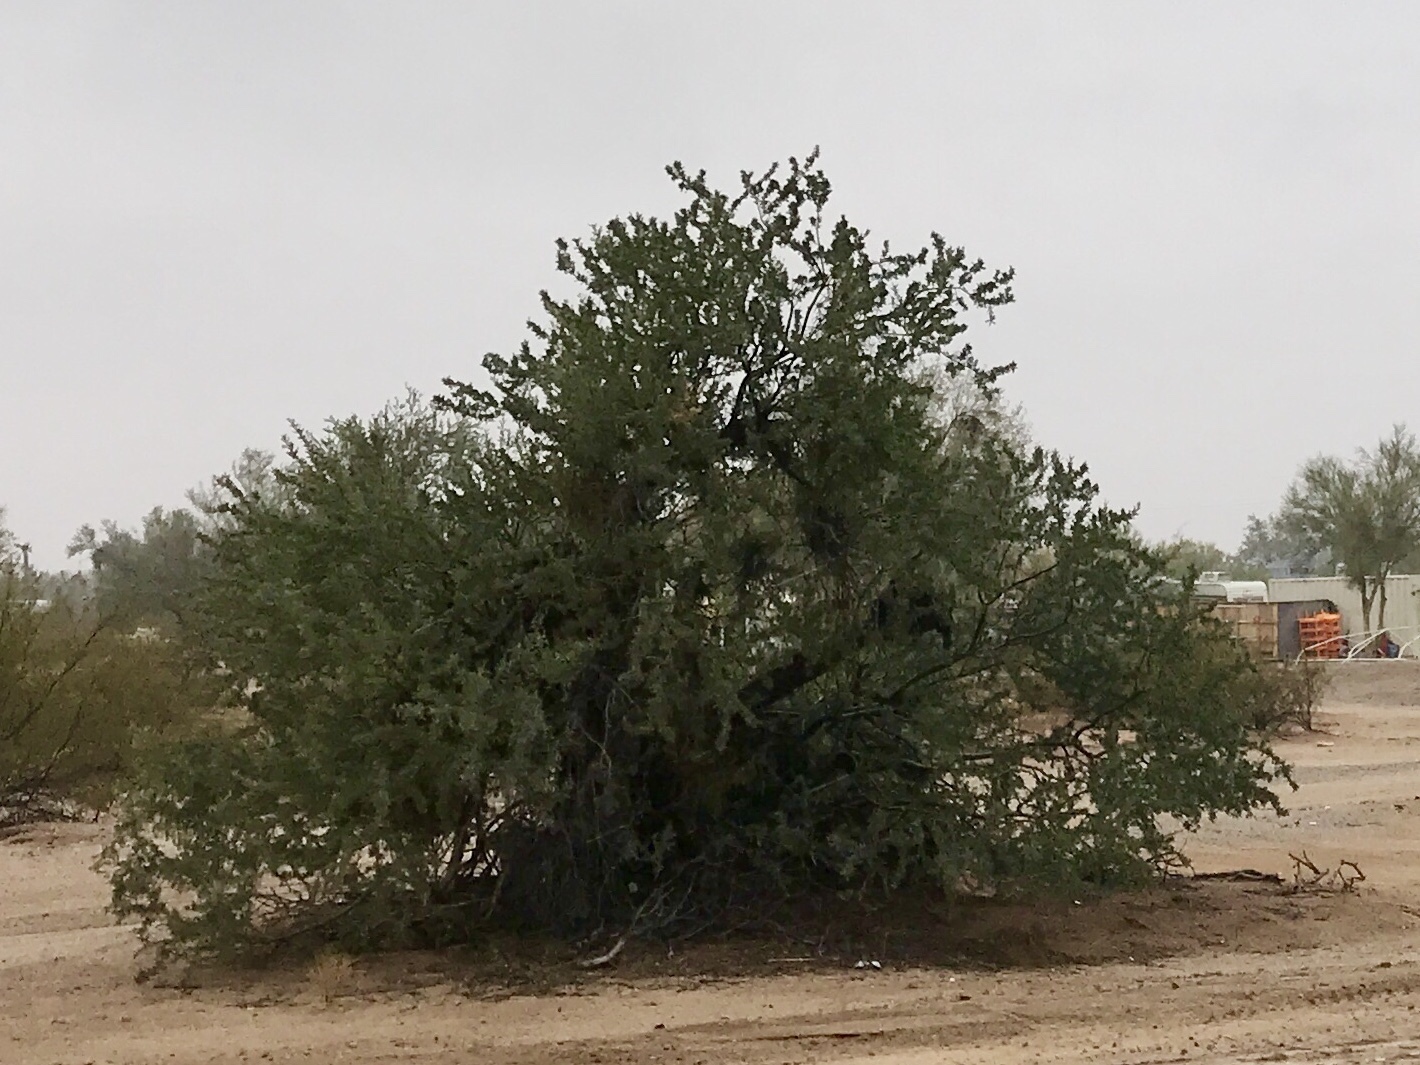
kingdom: Plantae
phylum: Tracheophyta
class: Magnoliopsida
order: Fabales
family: Fabaceae
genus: Olneya
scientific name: Olneya tesota
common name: Desert ironwood
